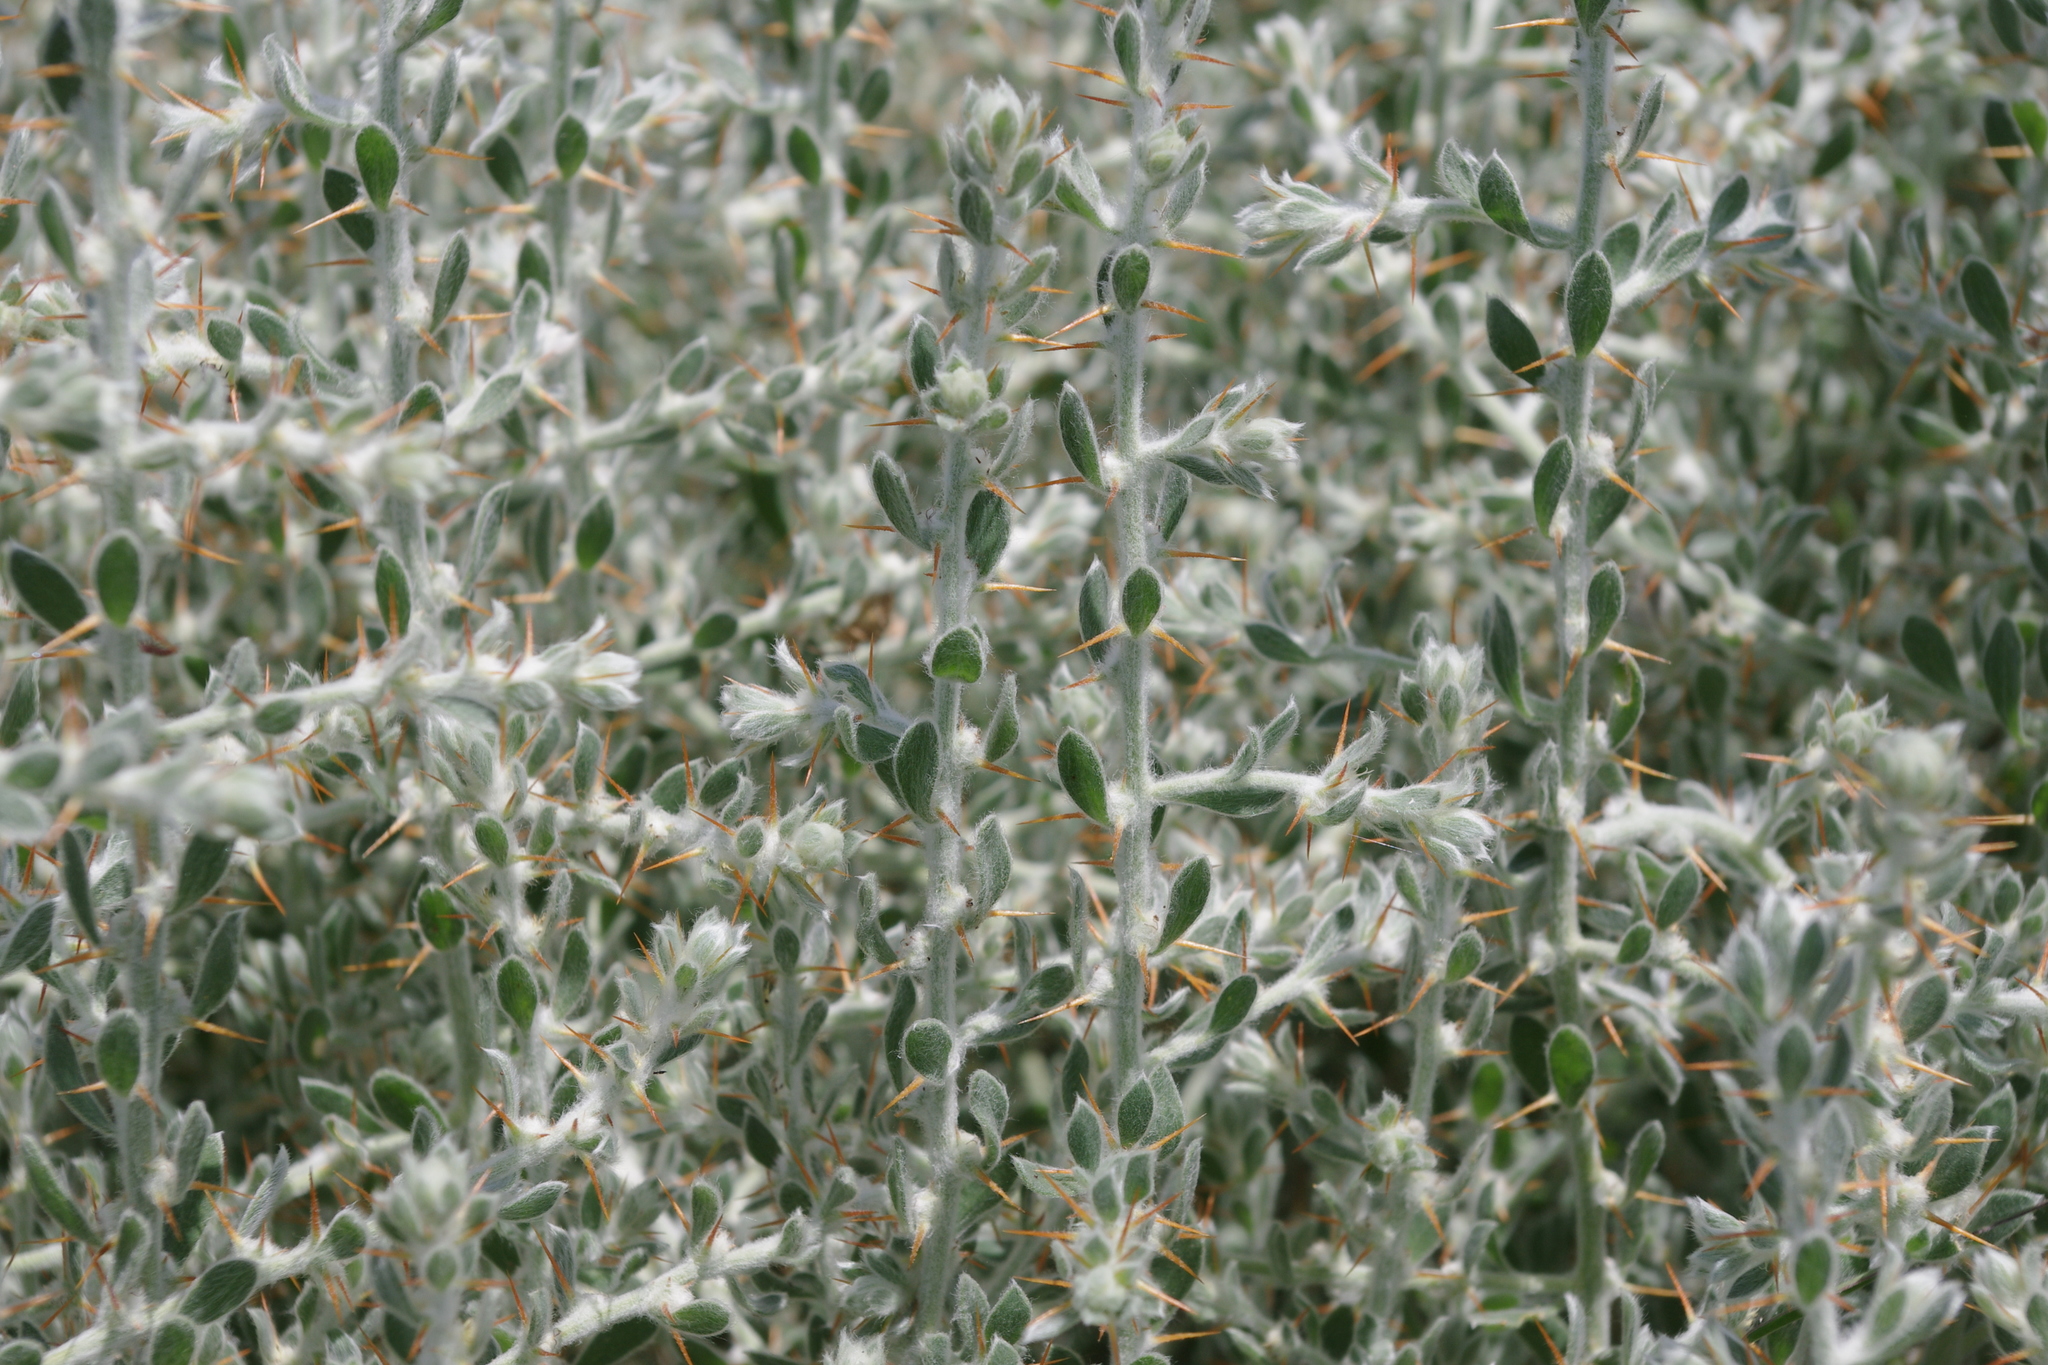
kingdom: Plantae
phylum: Tracheophyta
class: Magnoliopsida
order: Caryophyllales
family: Amaranthaceae
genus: Sclerolaena
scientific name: Sclerolaena birchii
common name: Galvanized bur
